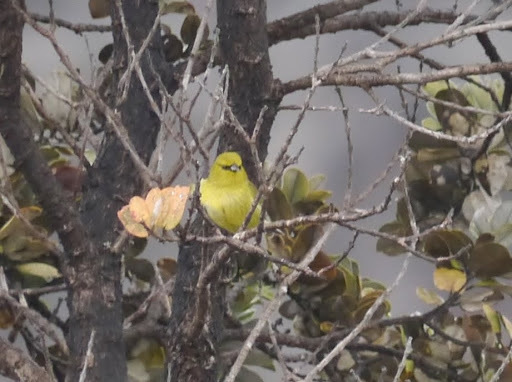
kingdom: Animalia
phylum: Chordata
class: Aves
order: Passeriformes
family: Fringillidae
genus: Chlorodrepanis
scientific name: Chlorodrepanis virens
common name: Hawaii amakihi
